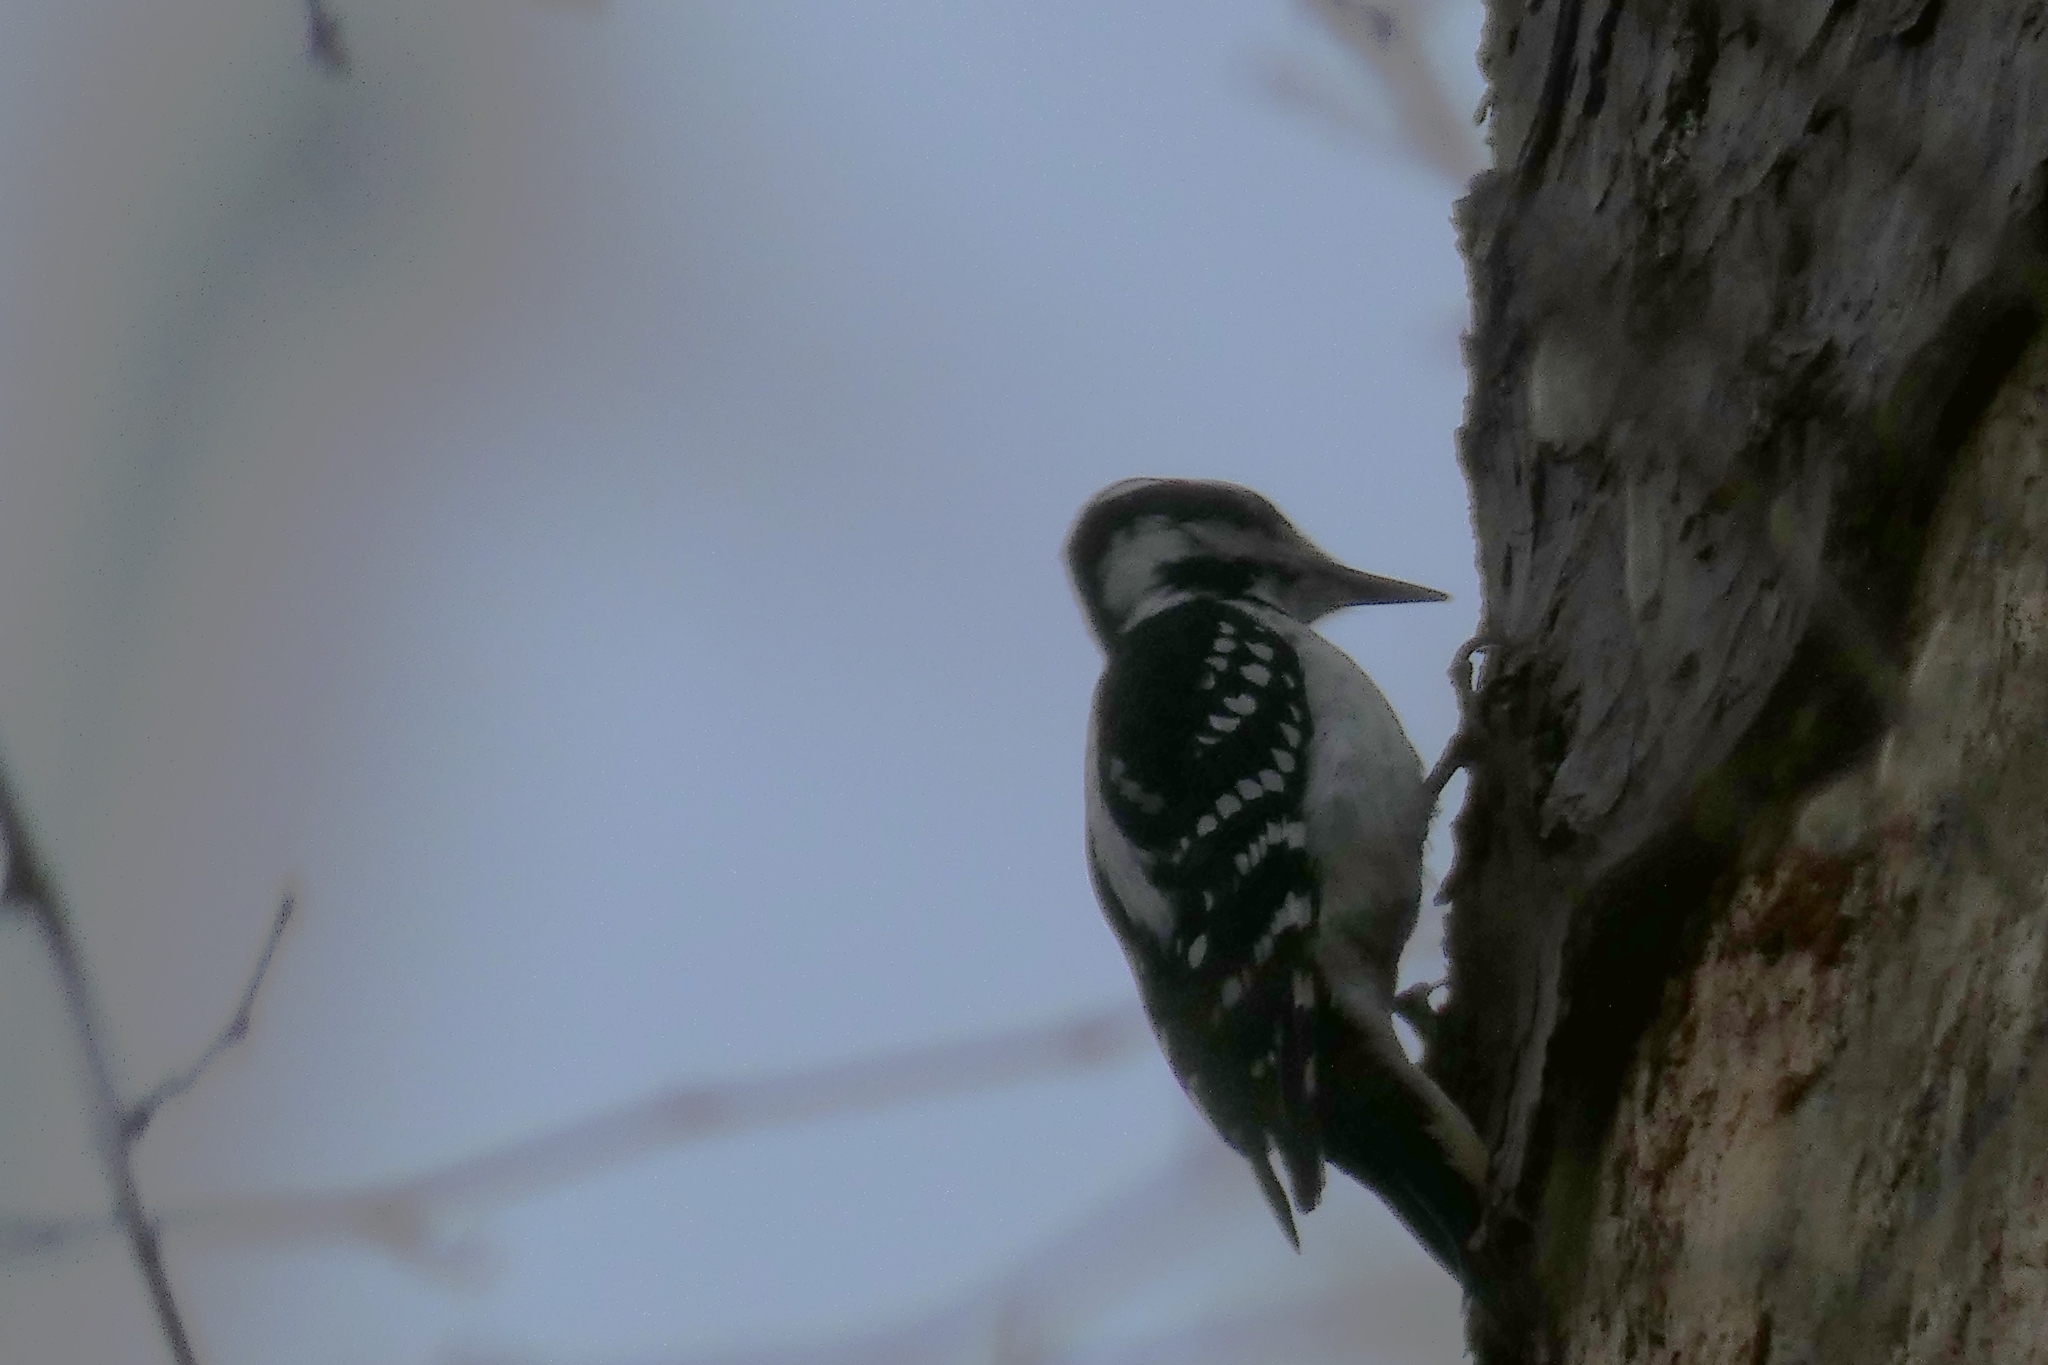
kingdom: Animalia
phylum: Chordata
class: Aves
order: Piciformes
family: Picidae
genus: Leuconotopicus
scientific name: Leuconotopicus villosus
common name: Hairy woodpecker
